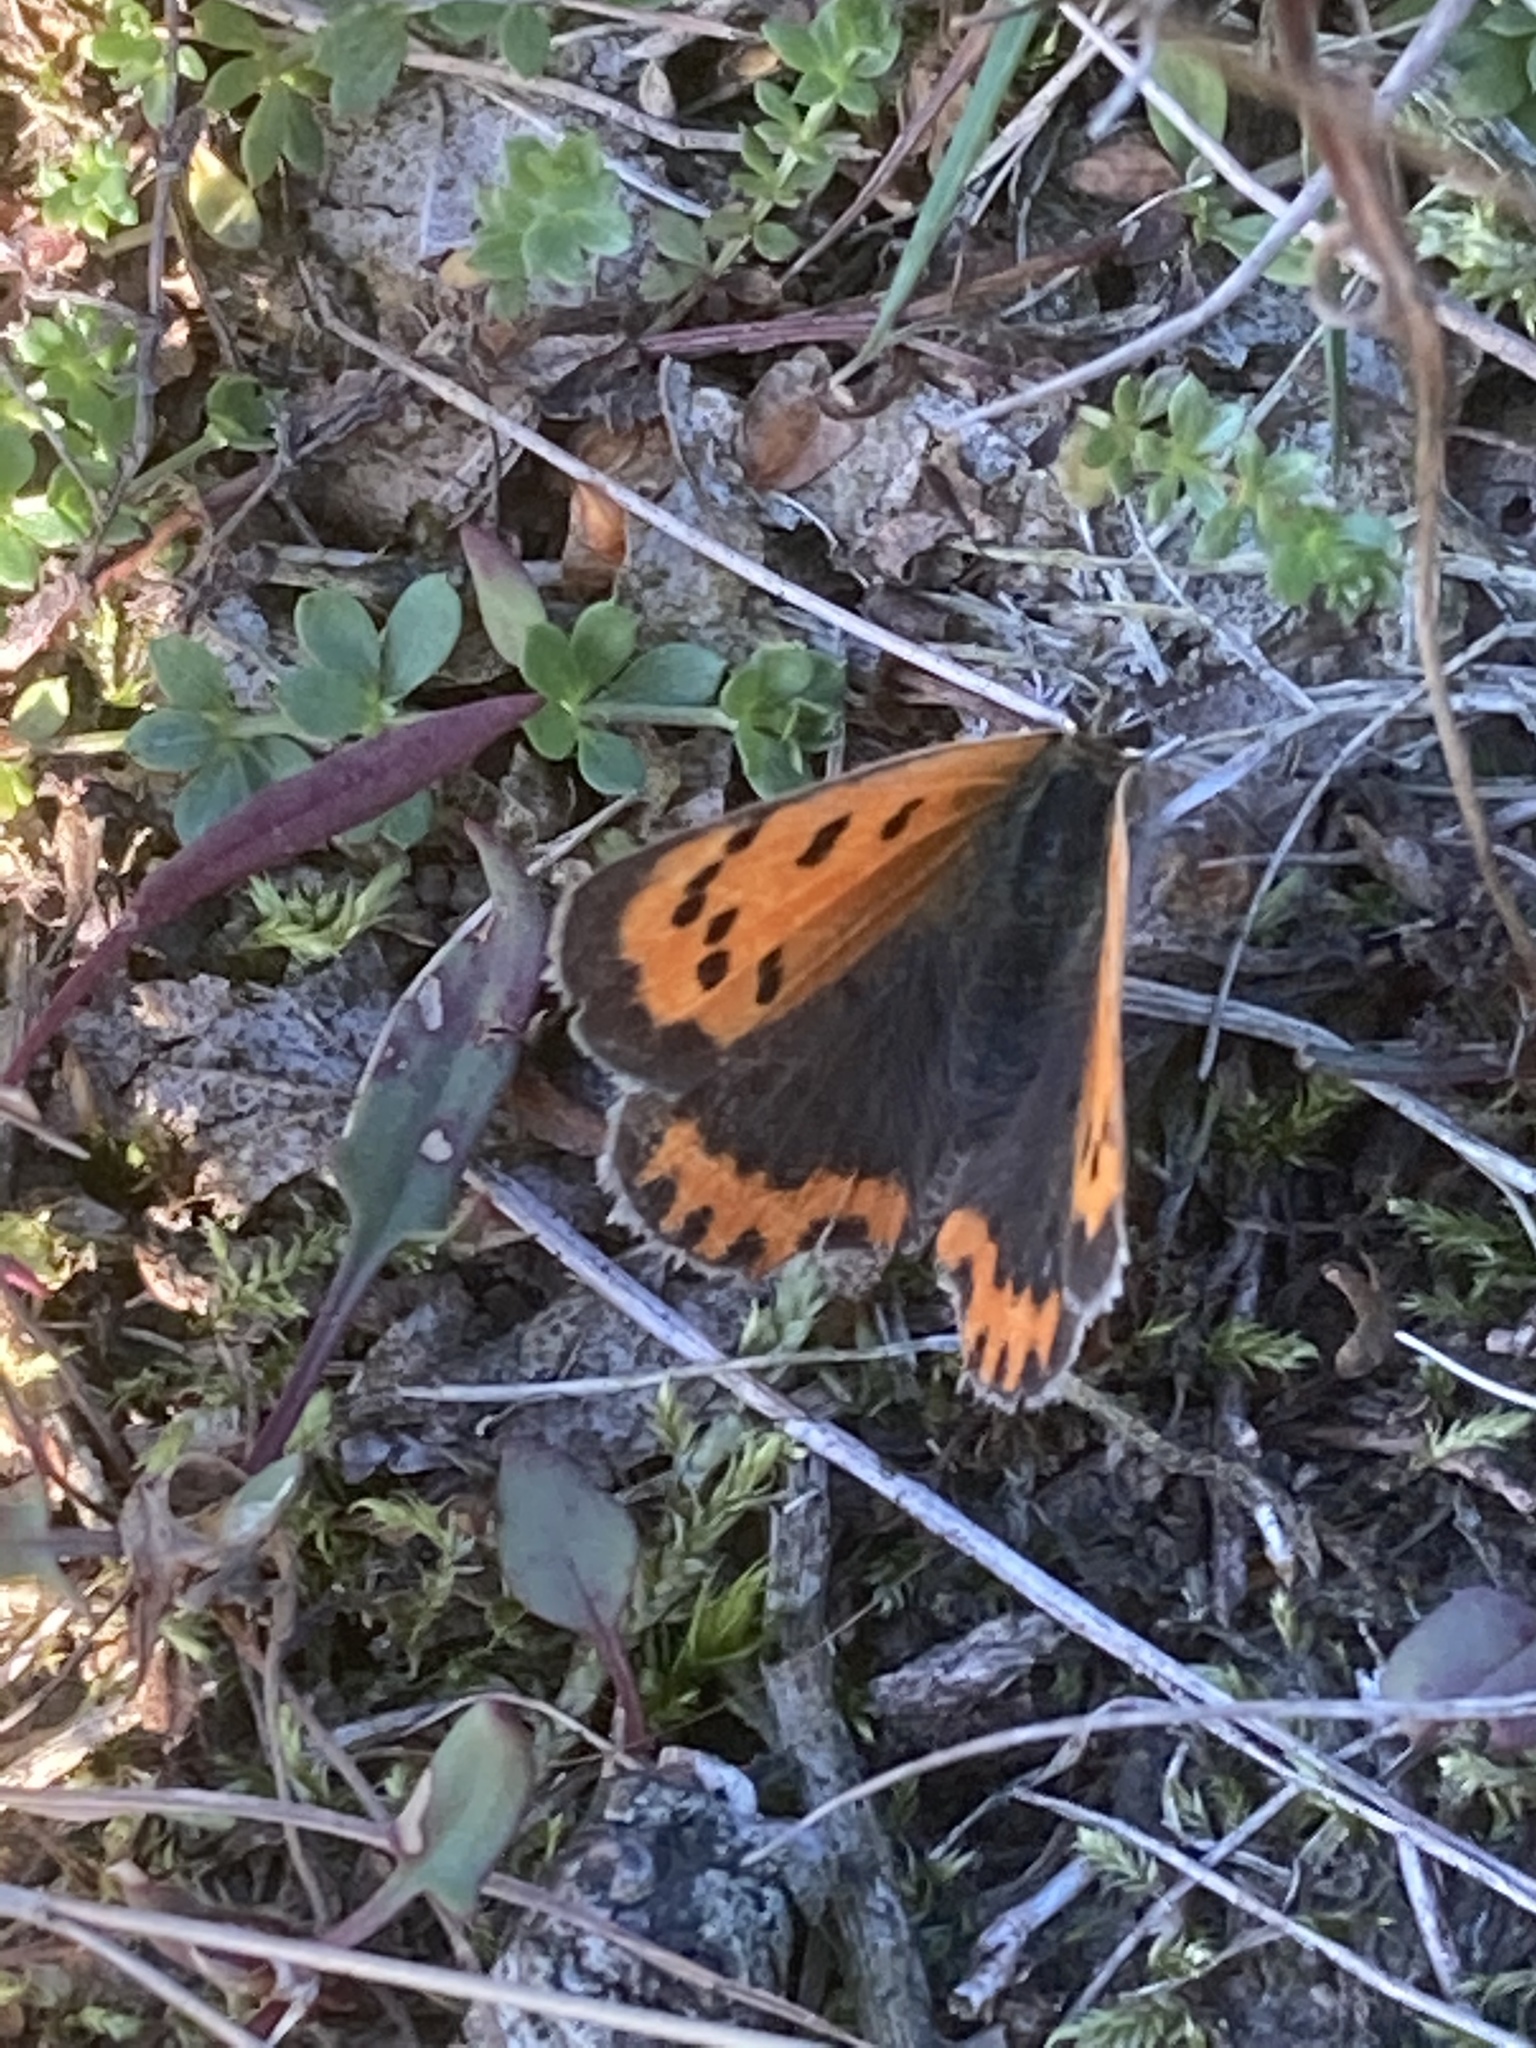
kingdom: Animalia
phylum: Arthropoda
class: Insecta
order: Lepidoptera
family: Lycaenidae
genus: Lycaena
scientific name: Lycaena phlaeas
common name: Small copper
